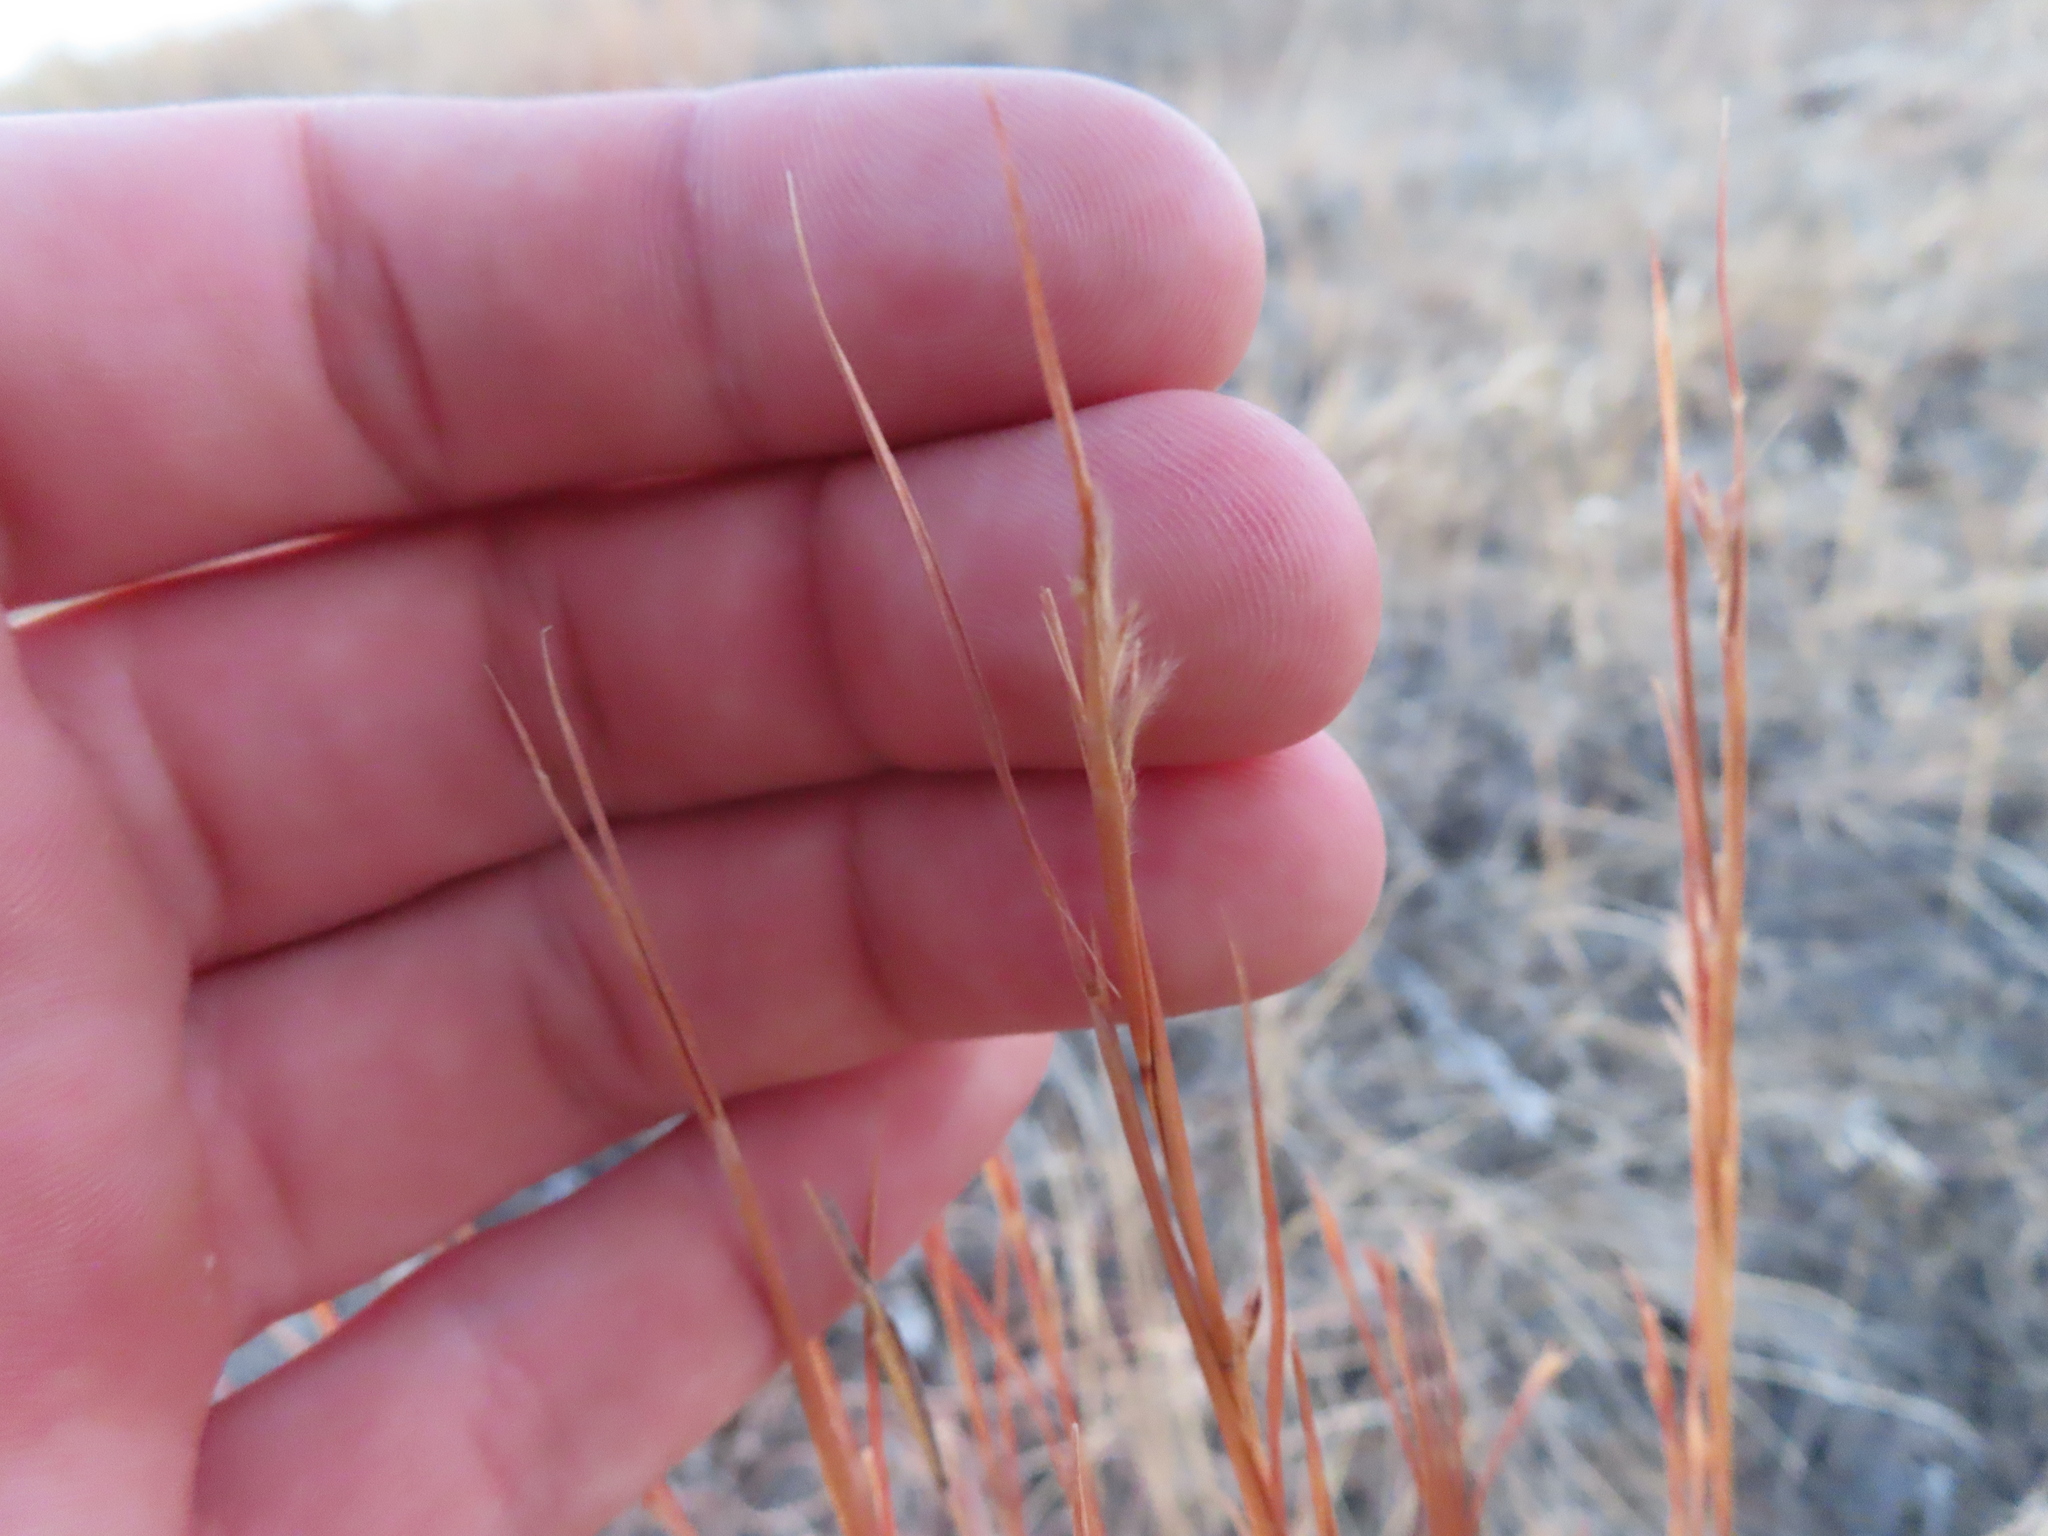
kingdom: Plantae
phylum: Tracheophyta
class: Liliopsida
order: Poales
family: Poaceae
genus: Schizachyrium
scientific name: Schizachyrium scoparium
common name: Little bluestem
